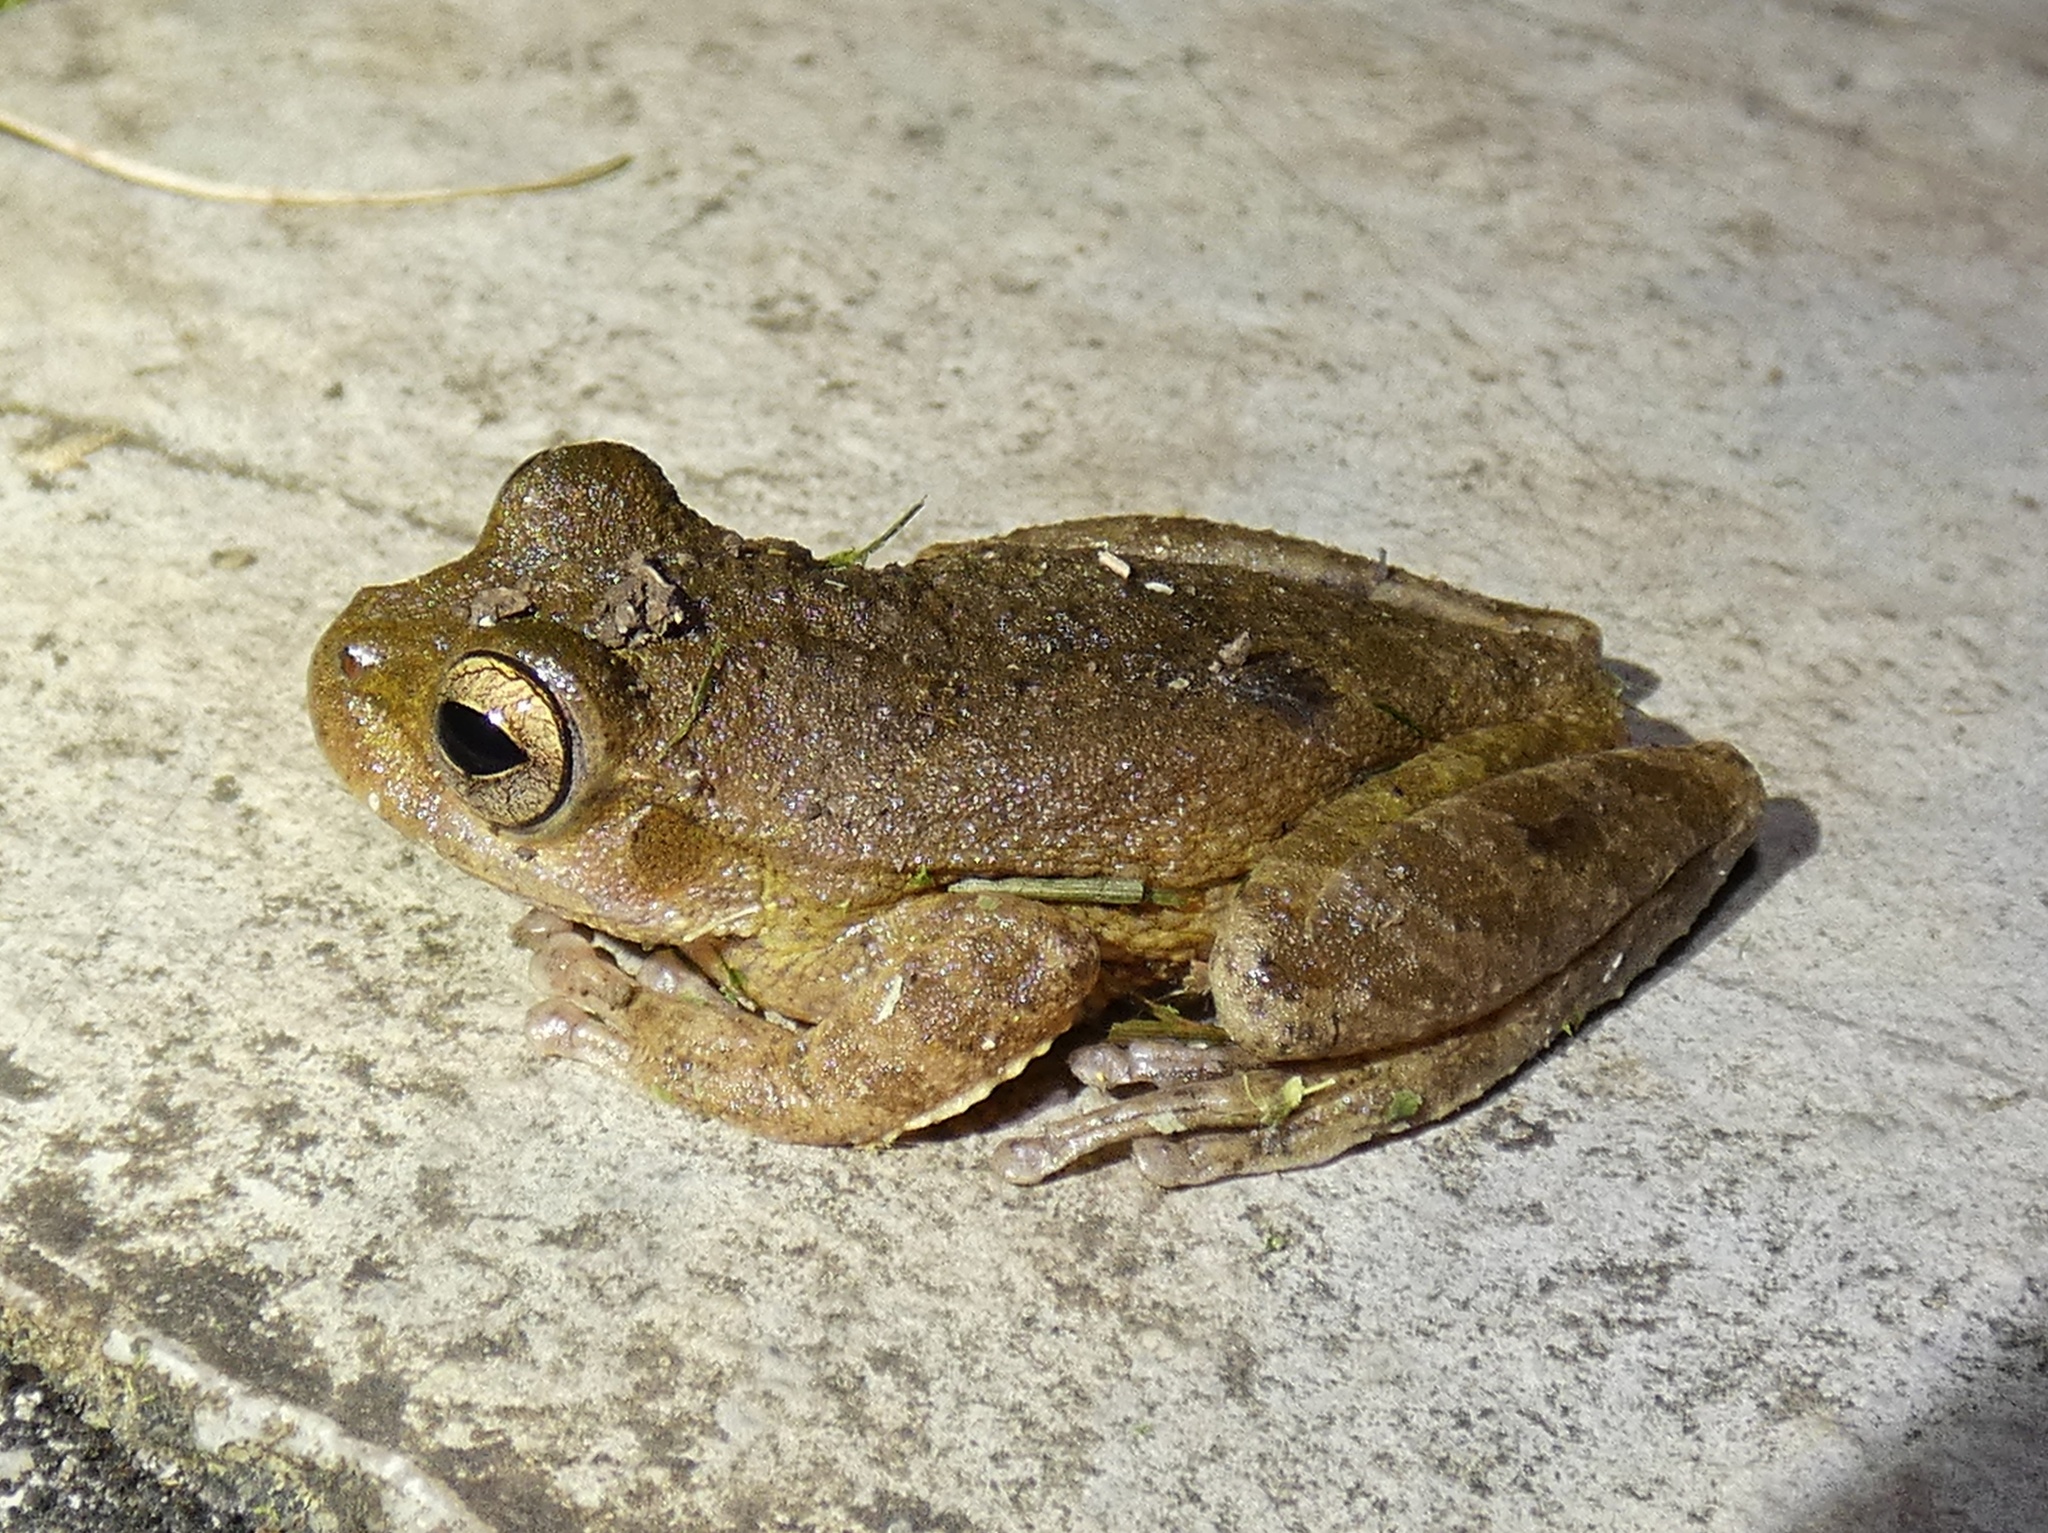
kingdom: Animalia
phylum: Chordata
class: Amphibia
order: Anura
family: Hylidae
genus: Smilisca
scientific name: Smilisca sila
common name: Panama cross-banded treefrog
